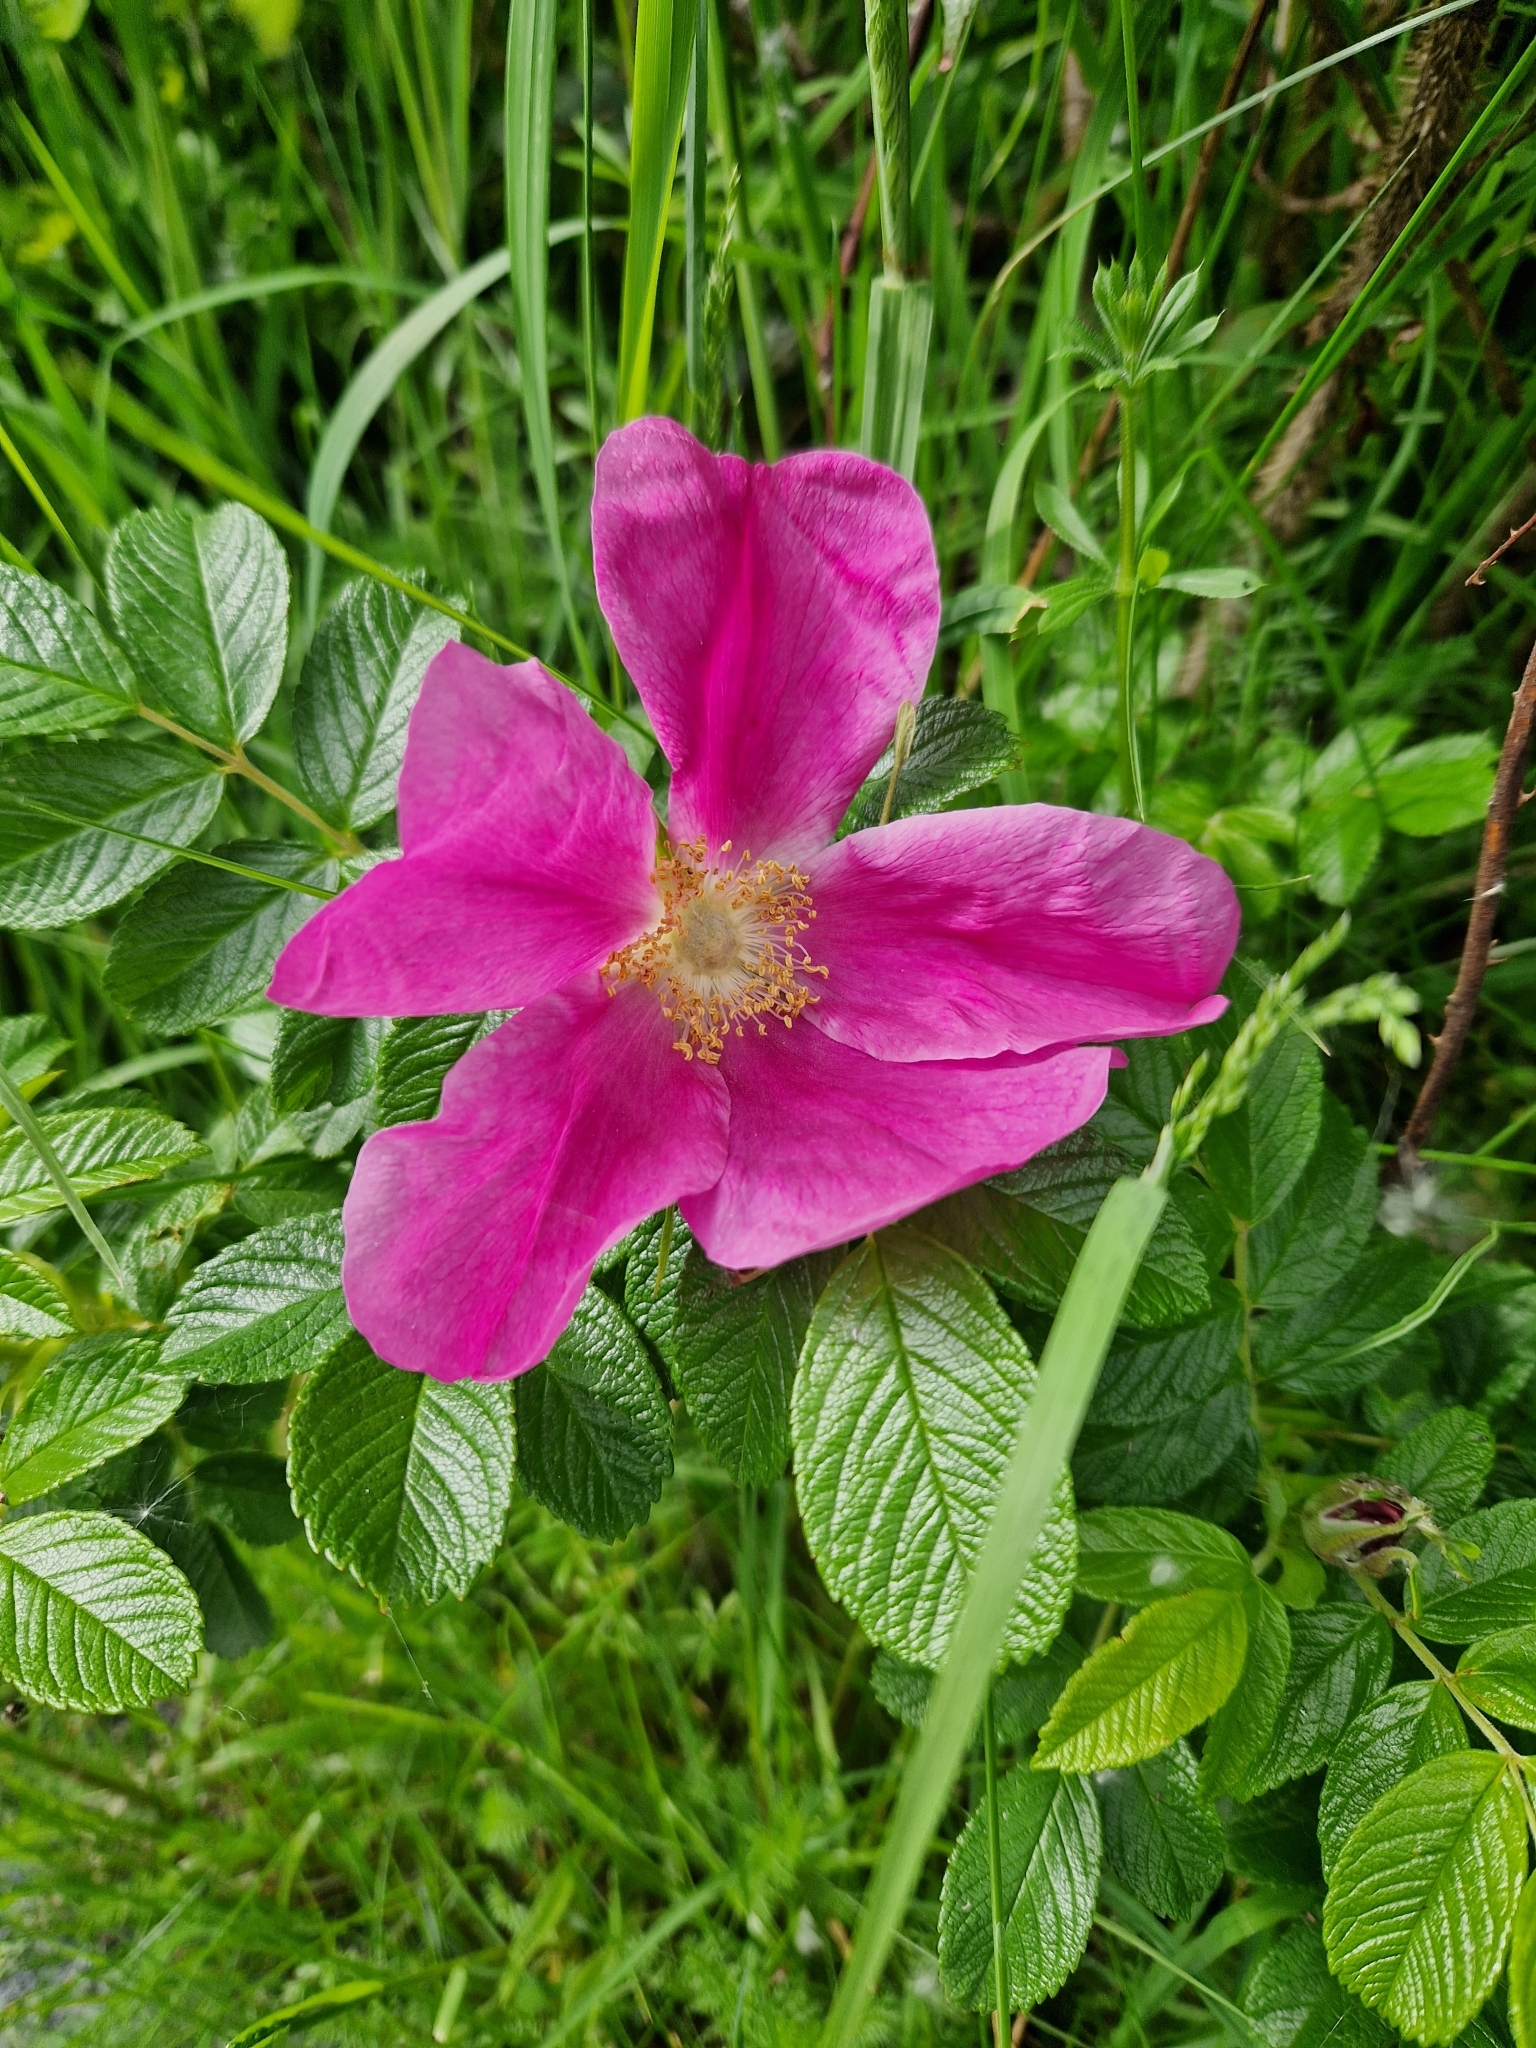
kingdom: Plantae
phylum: Tracheophyta
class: Magnoliopsida
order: Rosales
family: Rosaceae
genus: Rosa
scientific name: Rosa rugosa
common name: Japanese rose
